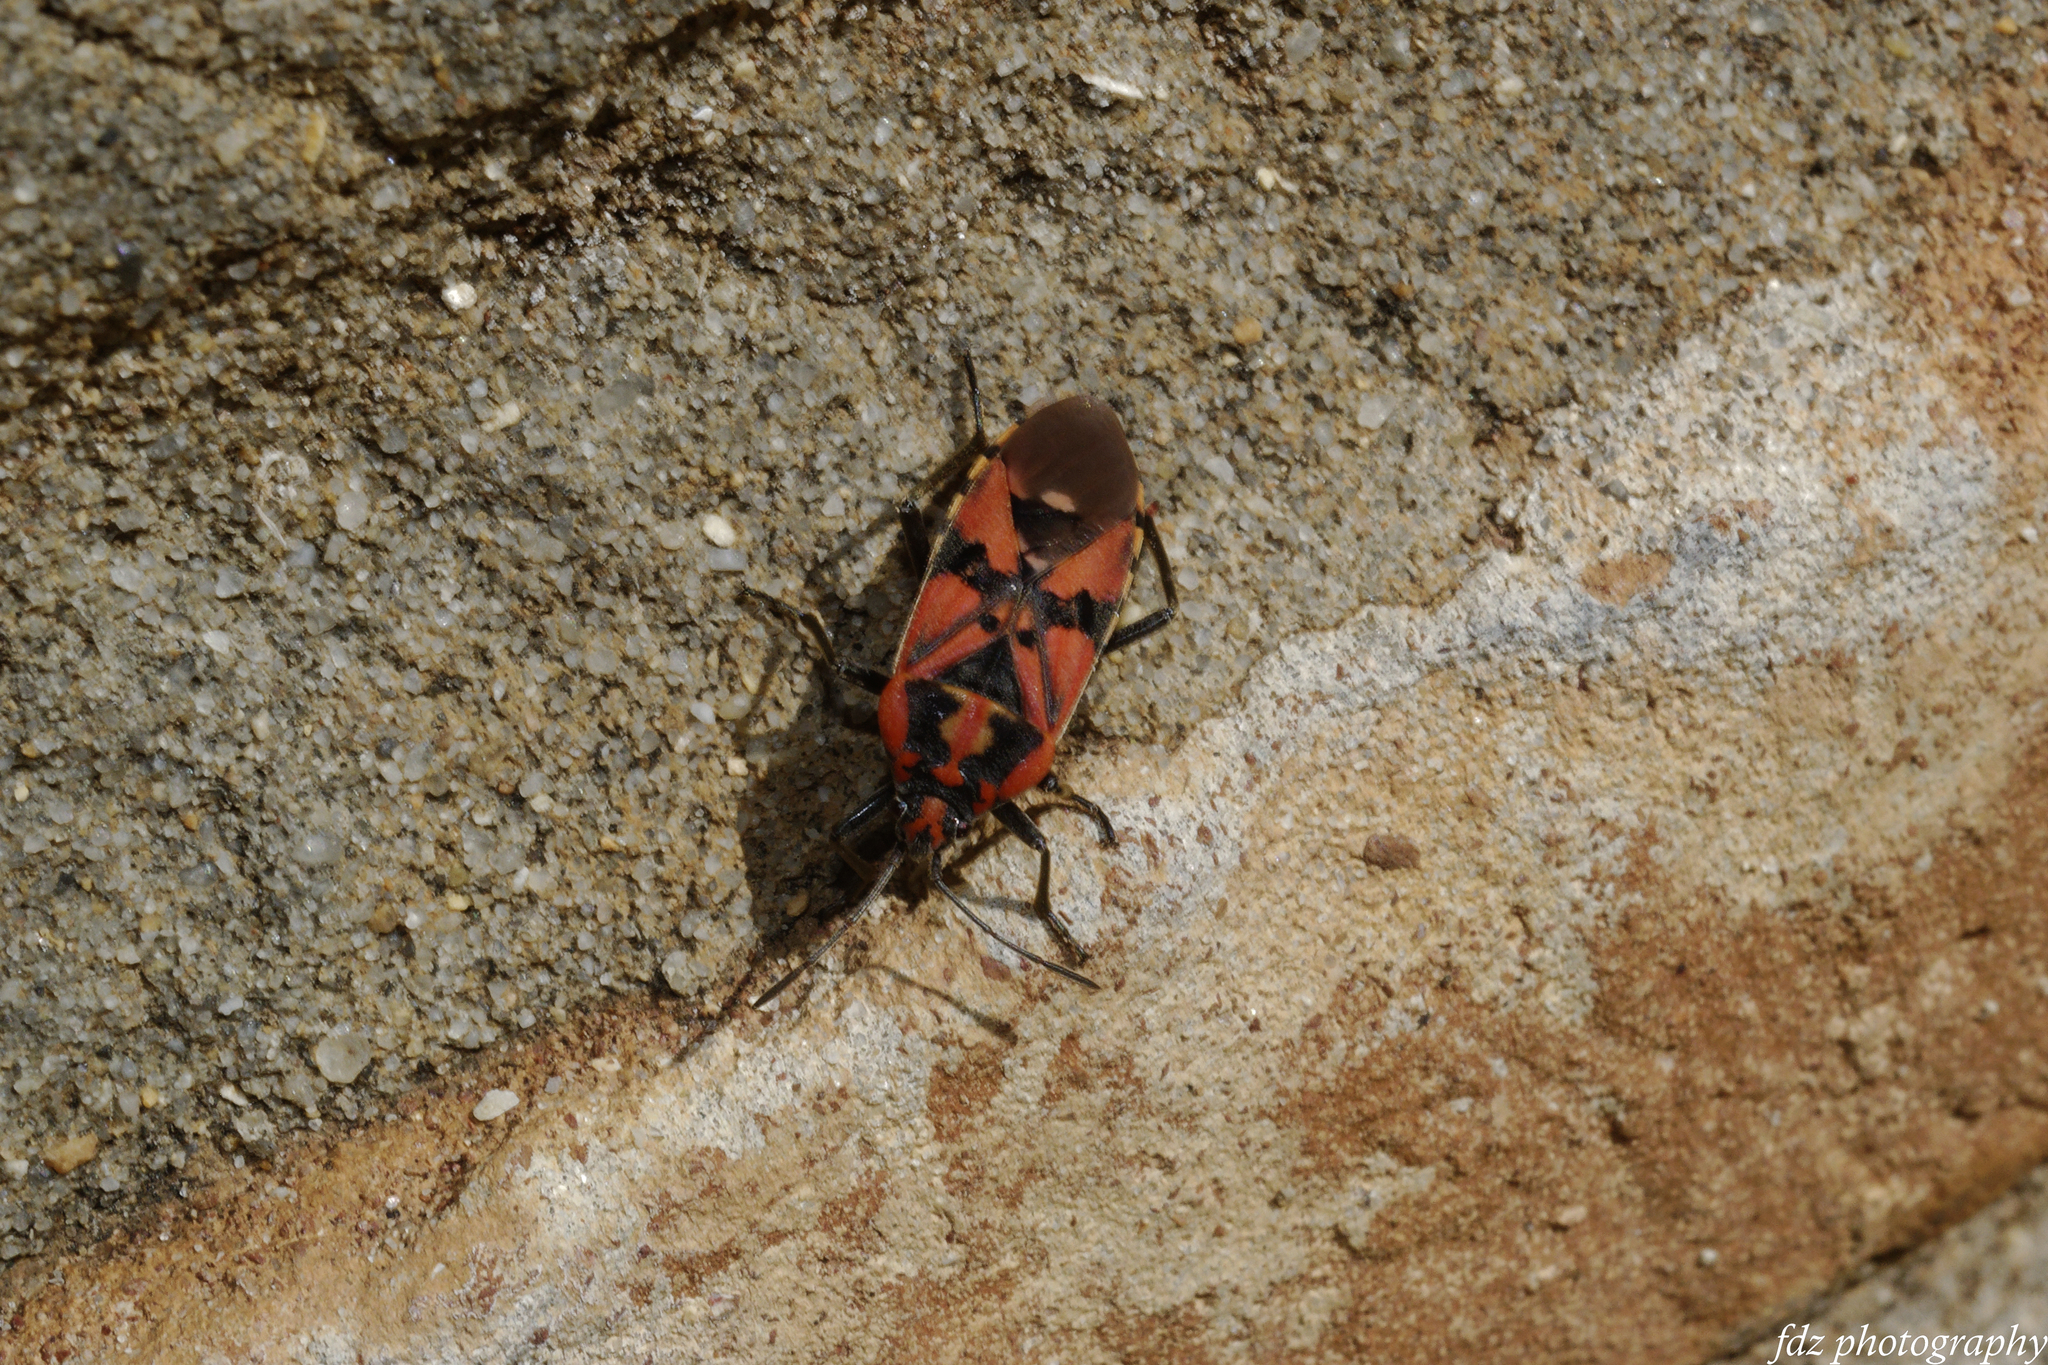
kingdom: Animalia
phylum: Arthropoda
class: Insecta
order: Hemiptera
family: Lygaeidae
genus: Spilostethus
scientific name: Spilostethus pandurus
